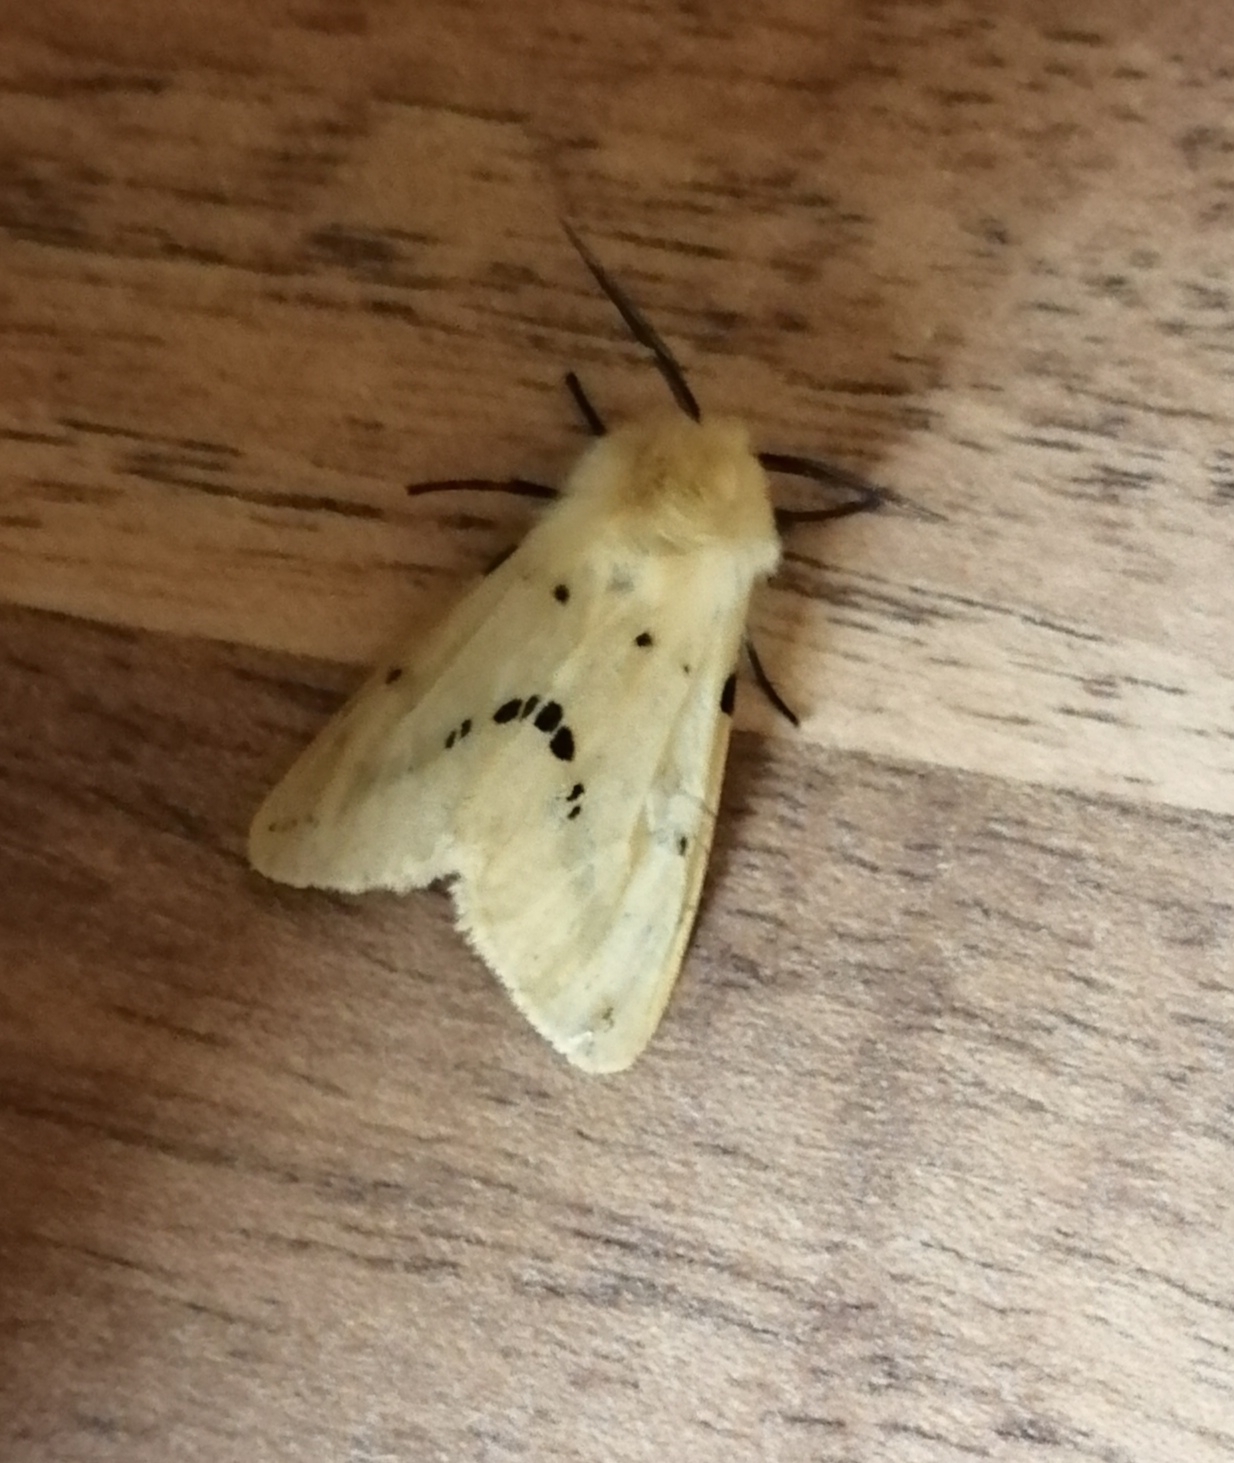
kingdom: Animalia
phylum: Arthropoda
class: Insecta
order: Lepidoptera
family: Erebidae
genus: Spilarctia
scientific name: Spilarctia lutea
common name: Buff ermine
